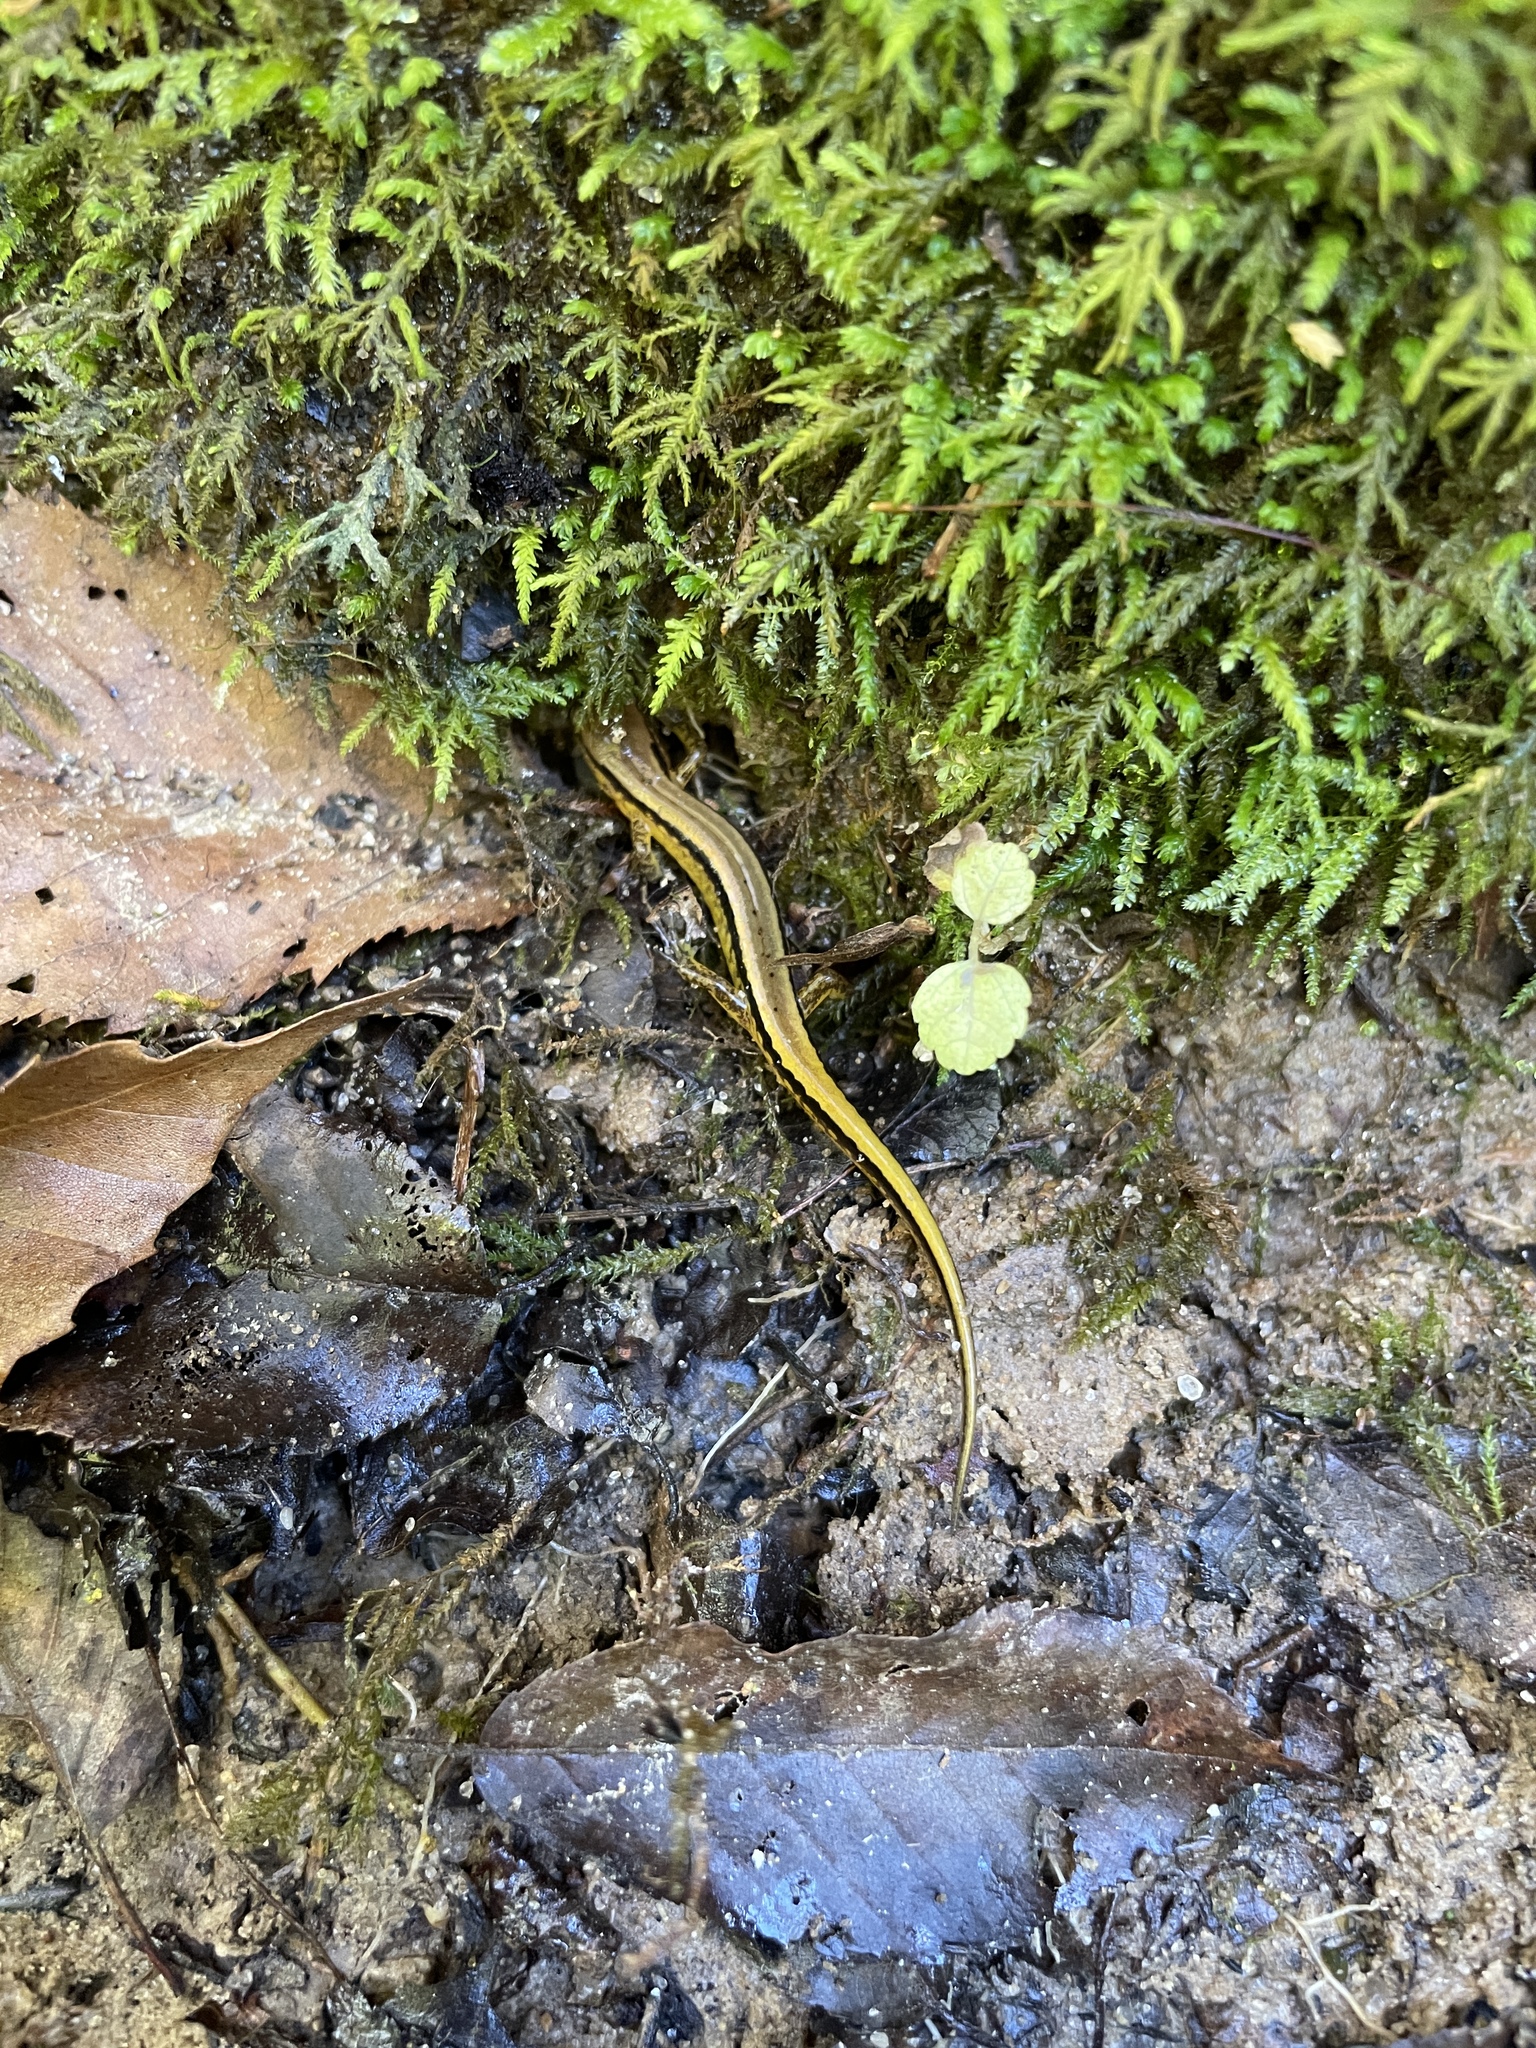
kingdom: Animalia
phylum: Chordata
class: Amphibia
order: Caudata
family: Plethodontidae
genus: Eurycea
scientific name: Eurycea cirrigera
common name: Southern two-lined salamander
